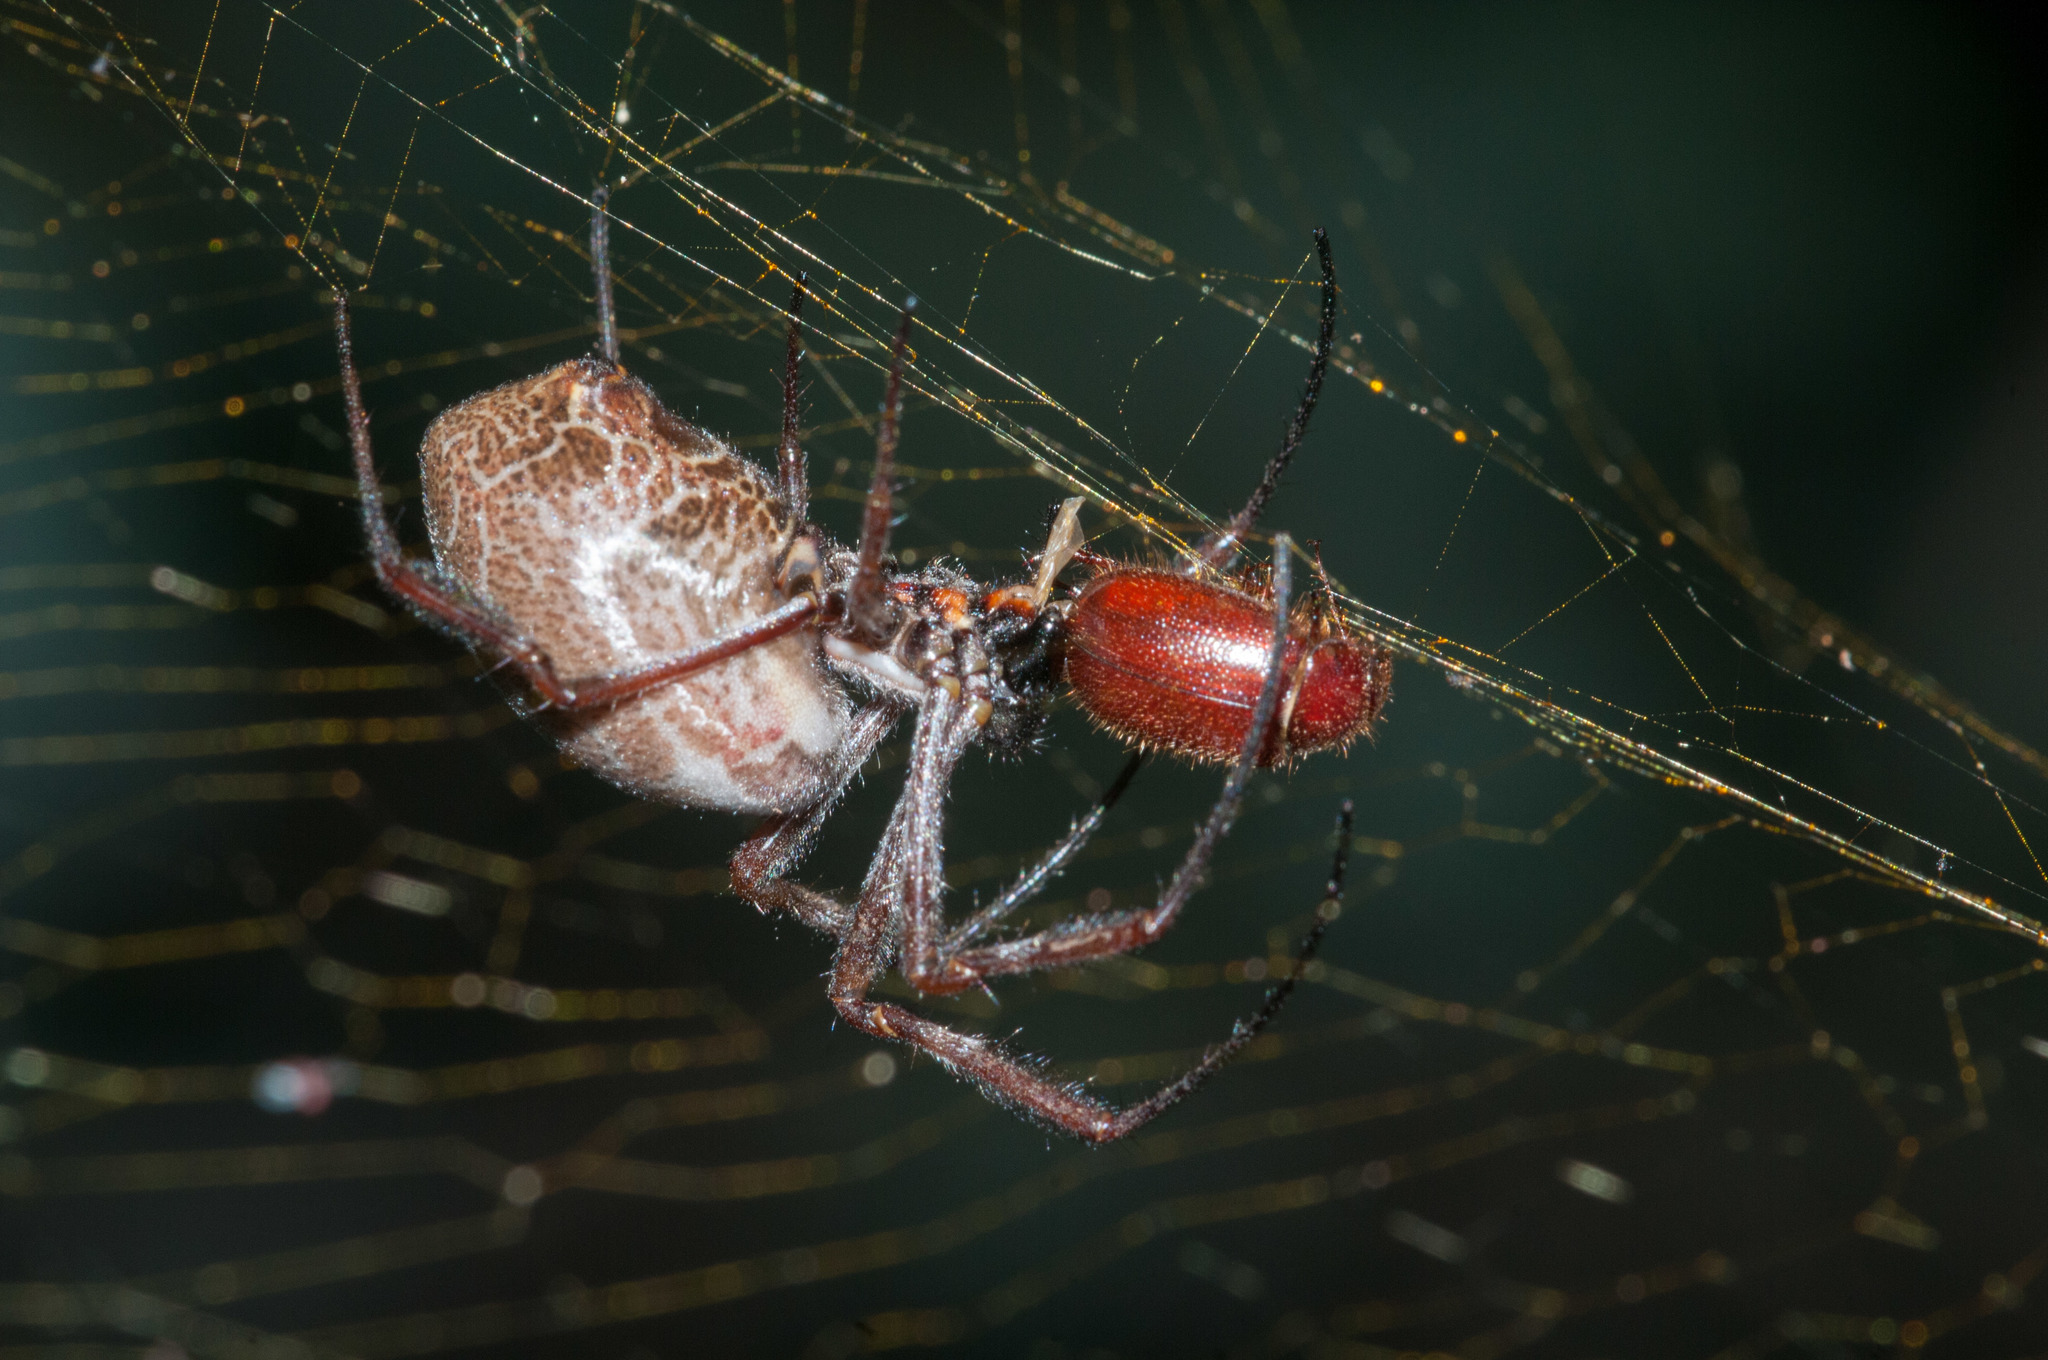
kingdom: Animalia
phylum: Arthropoda
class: Arachnida
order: Araneae
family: Araneidae
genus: Trichonephila
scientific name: Trichonephila edulis
